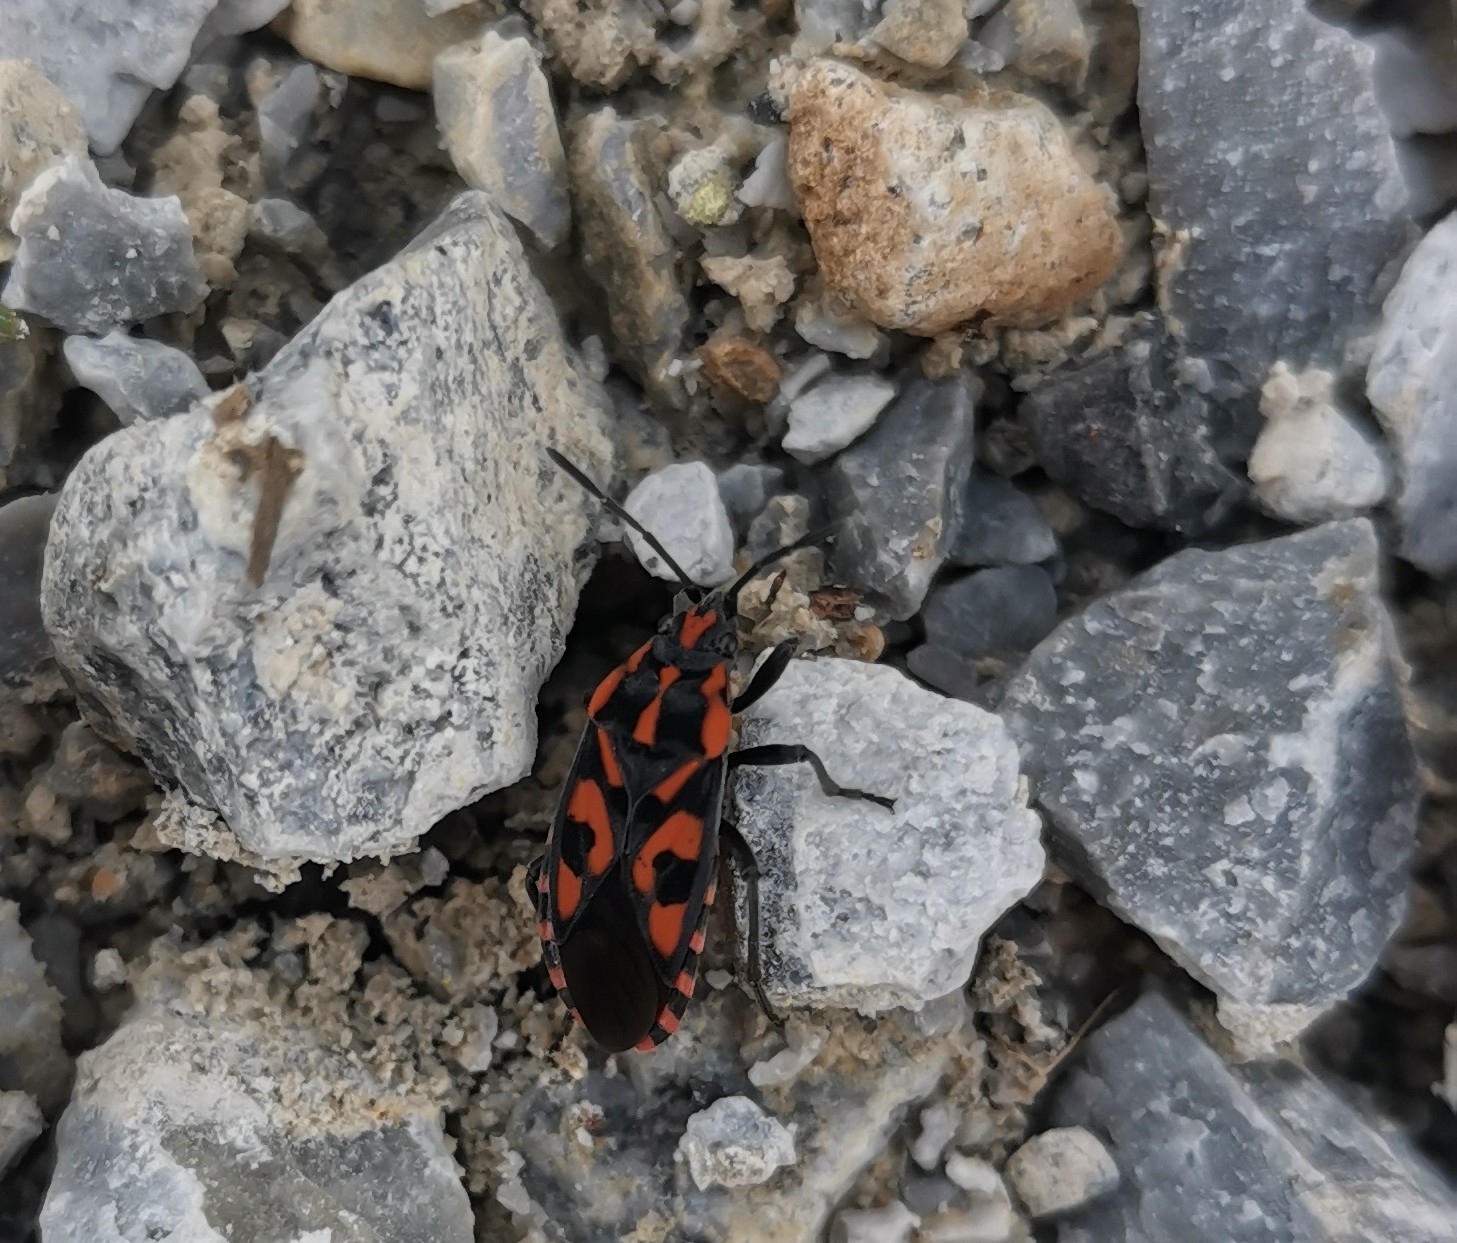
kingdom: Animalia
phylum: Arthropoda
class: Insecta
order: Hemiptera
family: Lygaeidae
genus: Spilostethus
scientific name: Spilostethus saxatilis
